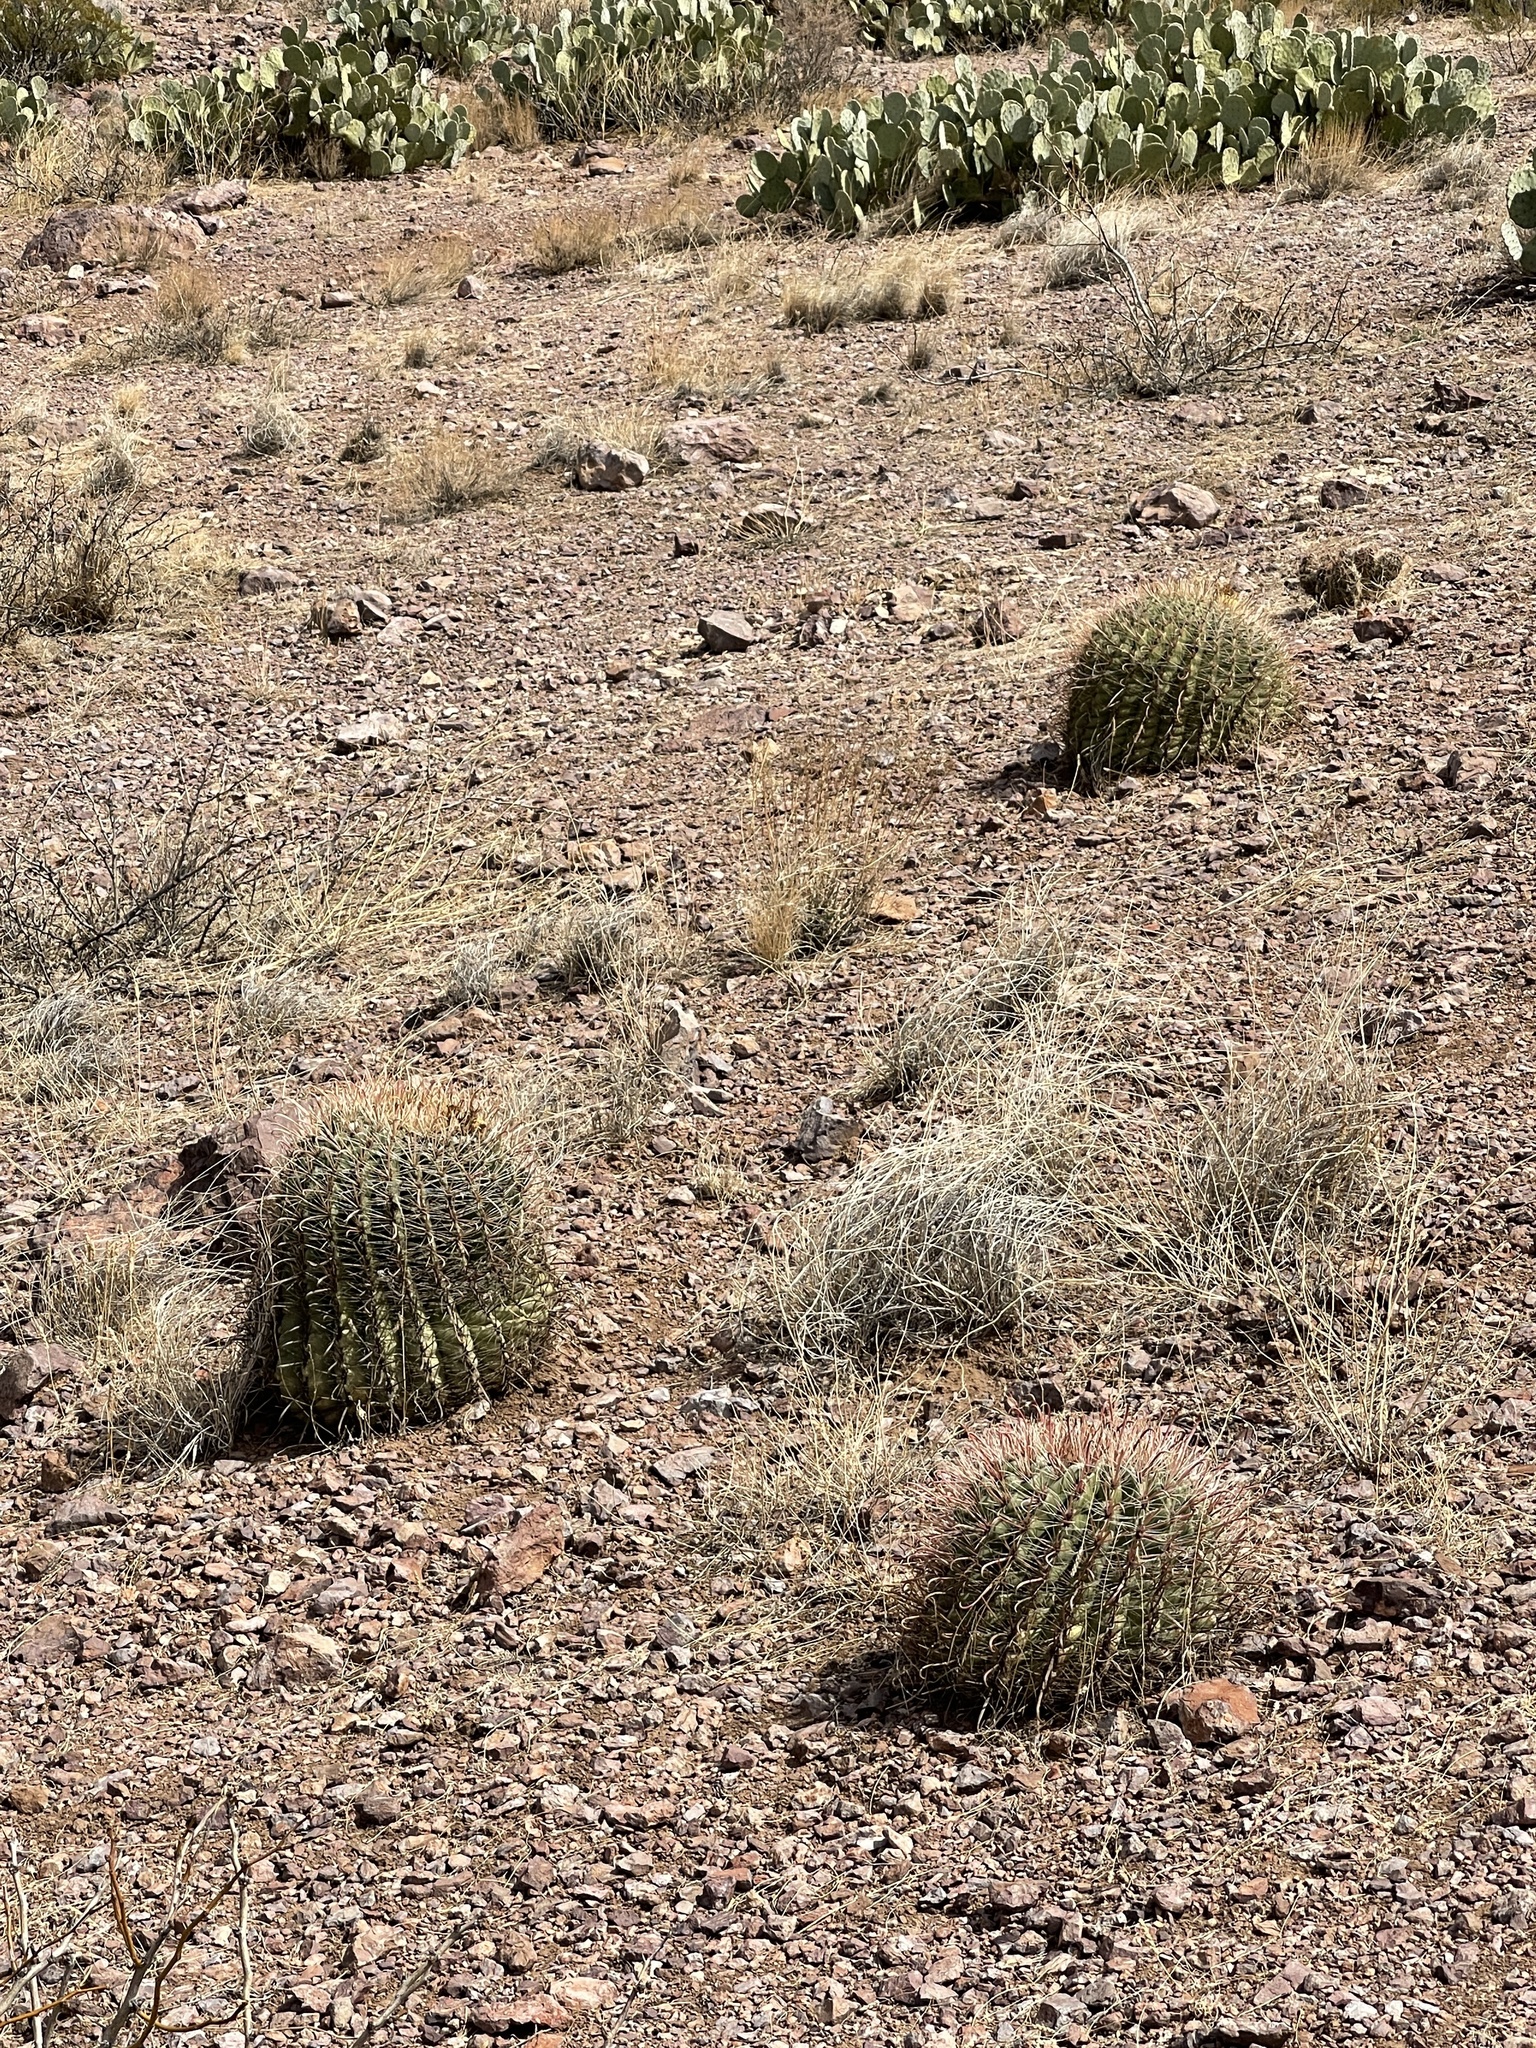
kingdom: Plantae
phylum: Tracheophyta
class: Magnoliopsida
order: Caryophyllales
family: Cactaceae
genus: Ferocactus
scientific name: Ferocactus wislizeni
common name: Candy barrel cactus
